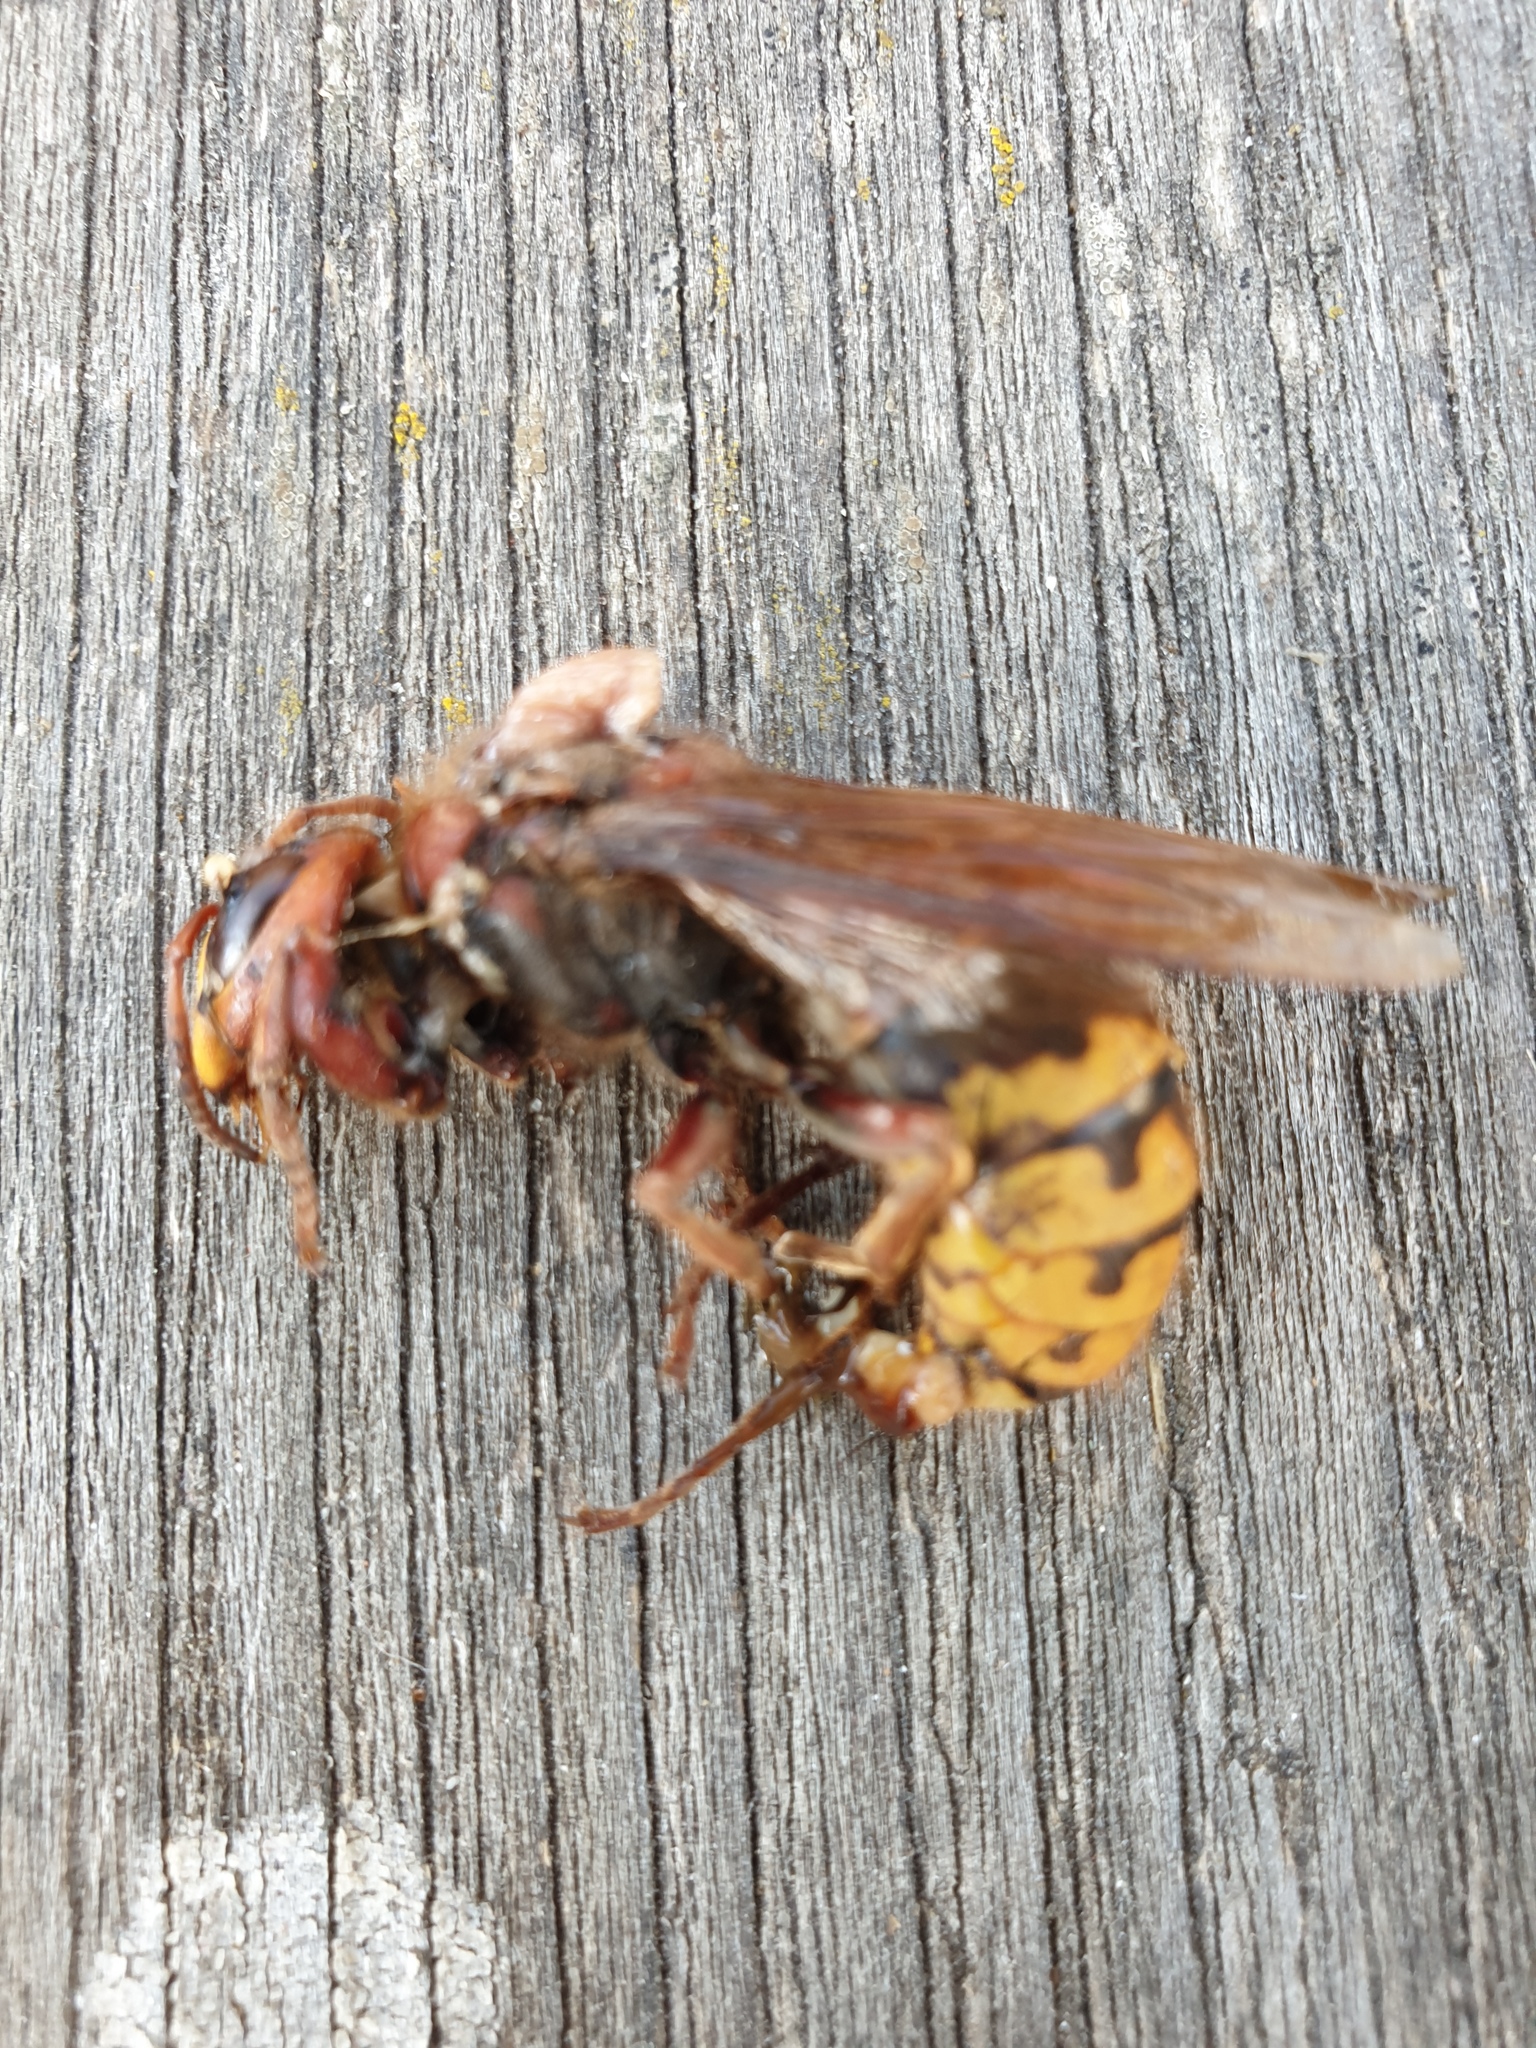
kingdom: Animalia
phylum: Arthropoda
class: Insecta
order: Hymenoptera
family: Vespidae
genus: Vespa
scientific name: Vespa crabro
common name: Hornet
